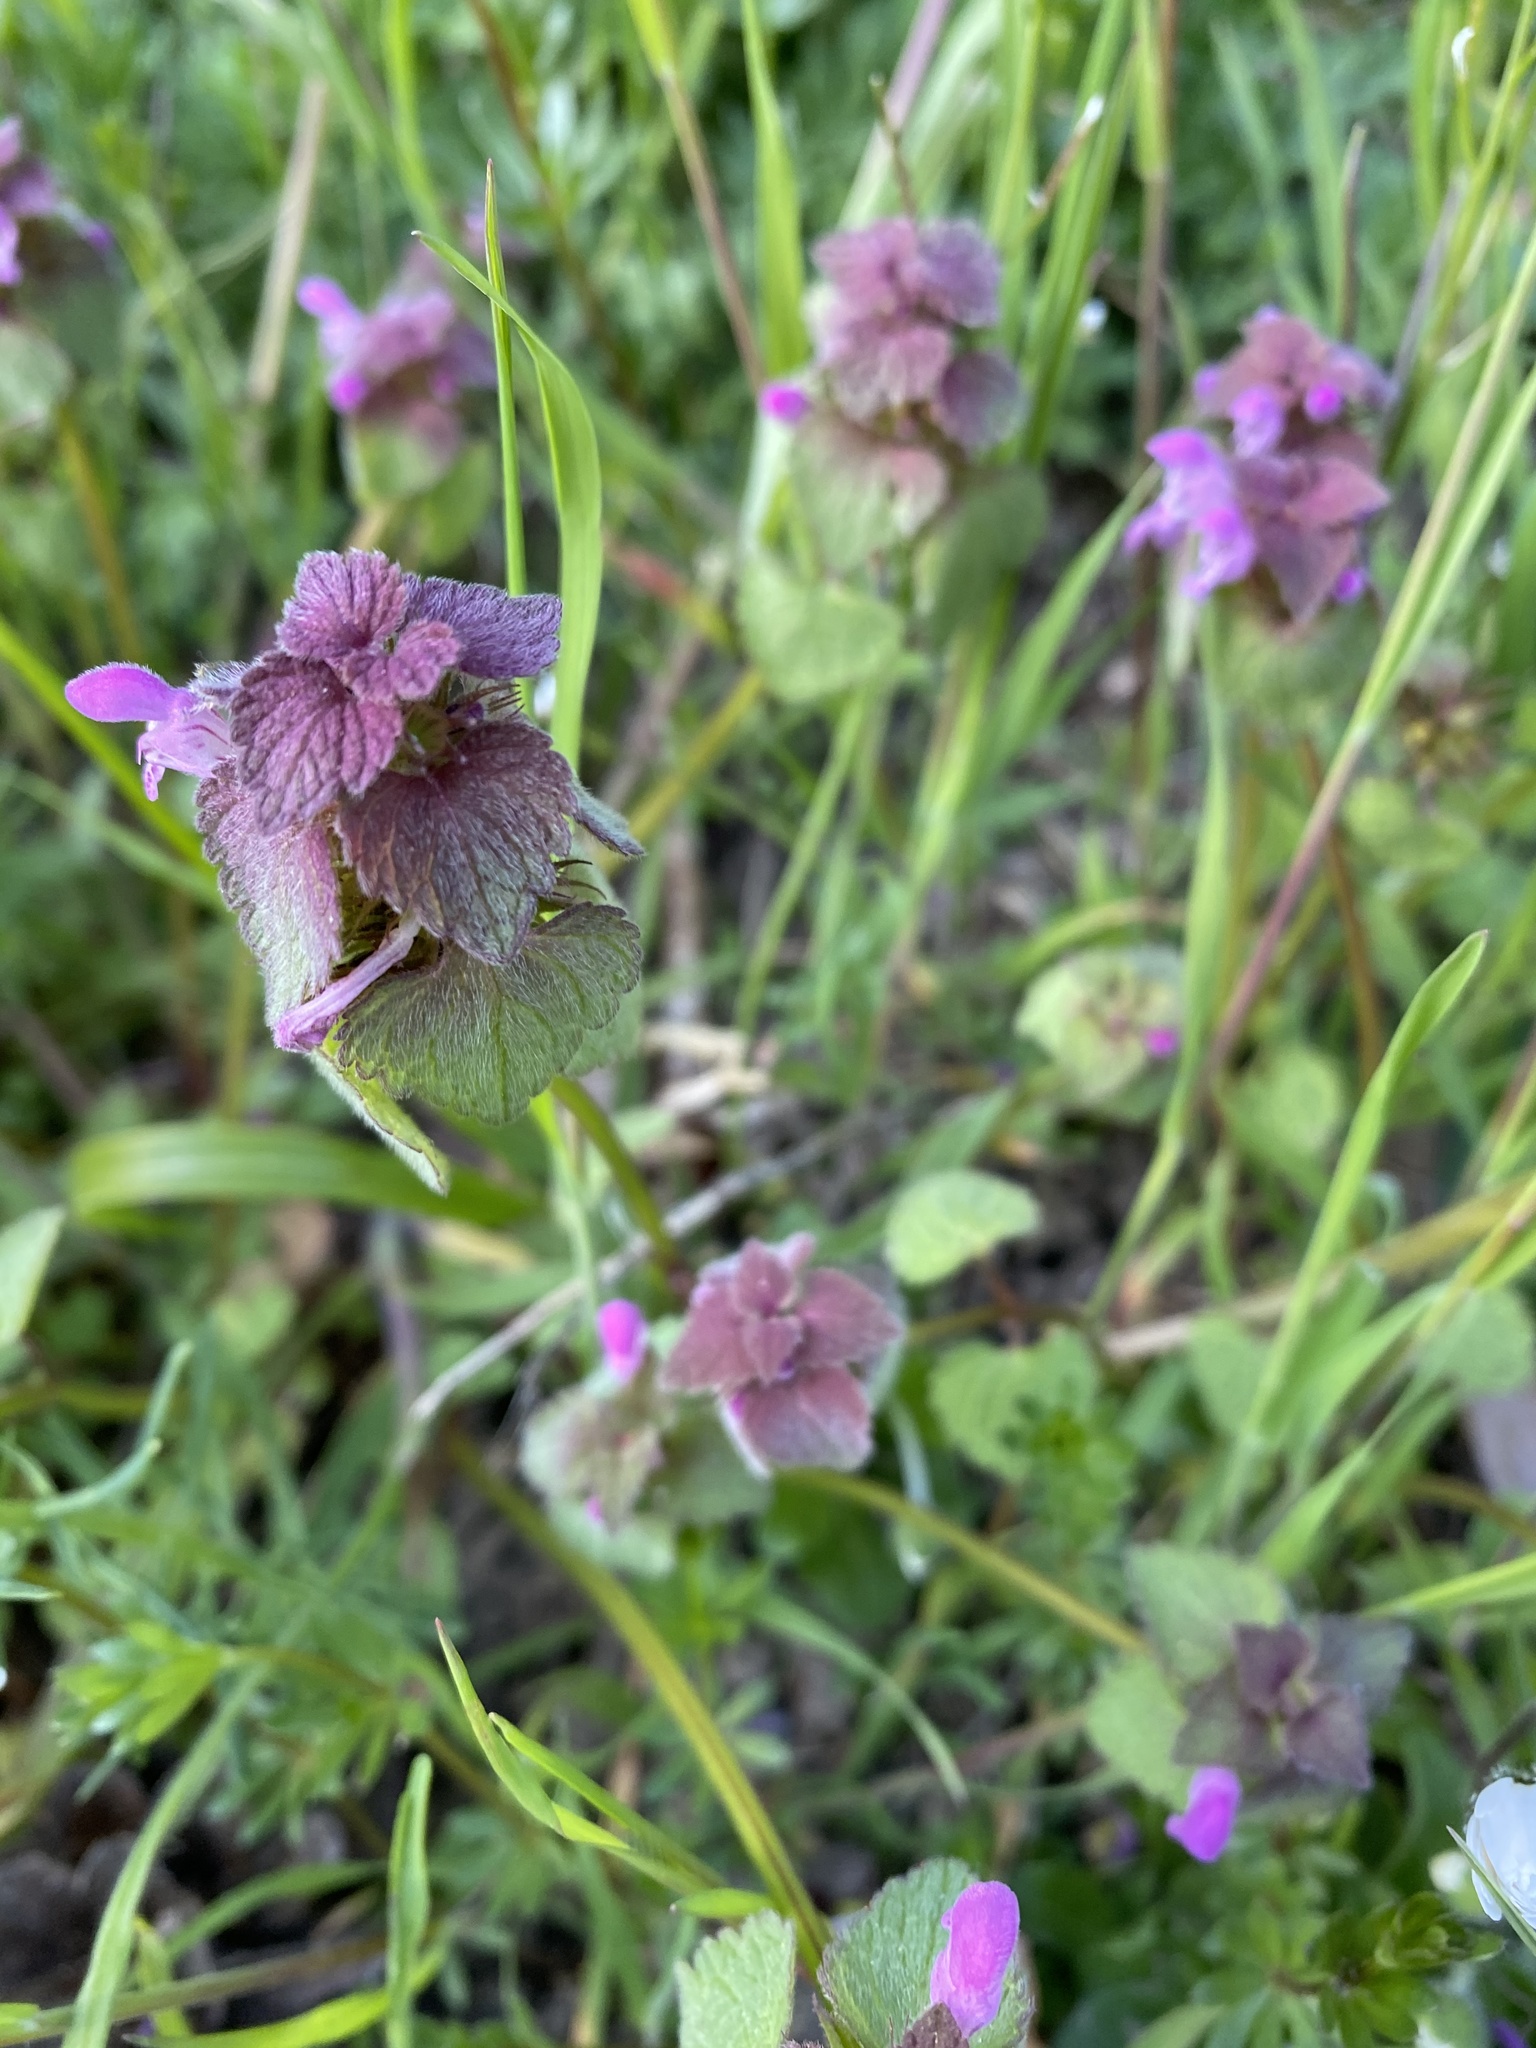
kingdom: Plantae
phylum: Tracheophyta
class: Magnoliopsida
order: Lamiales
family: Lamiaceae
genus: Lamium
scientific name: Lamium purpureum
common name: Red dead-nettle
